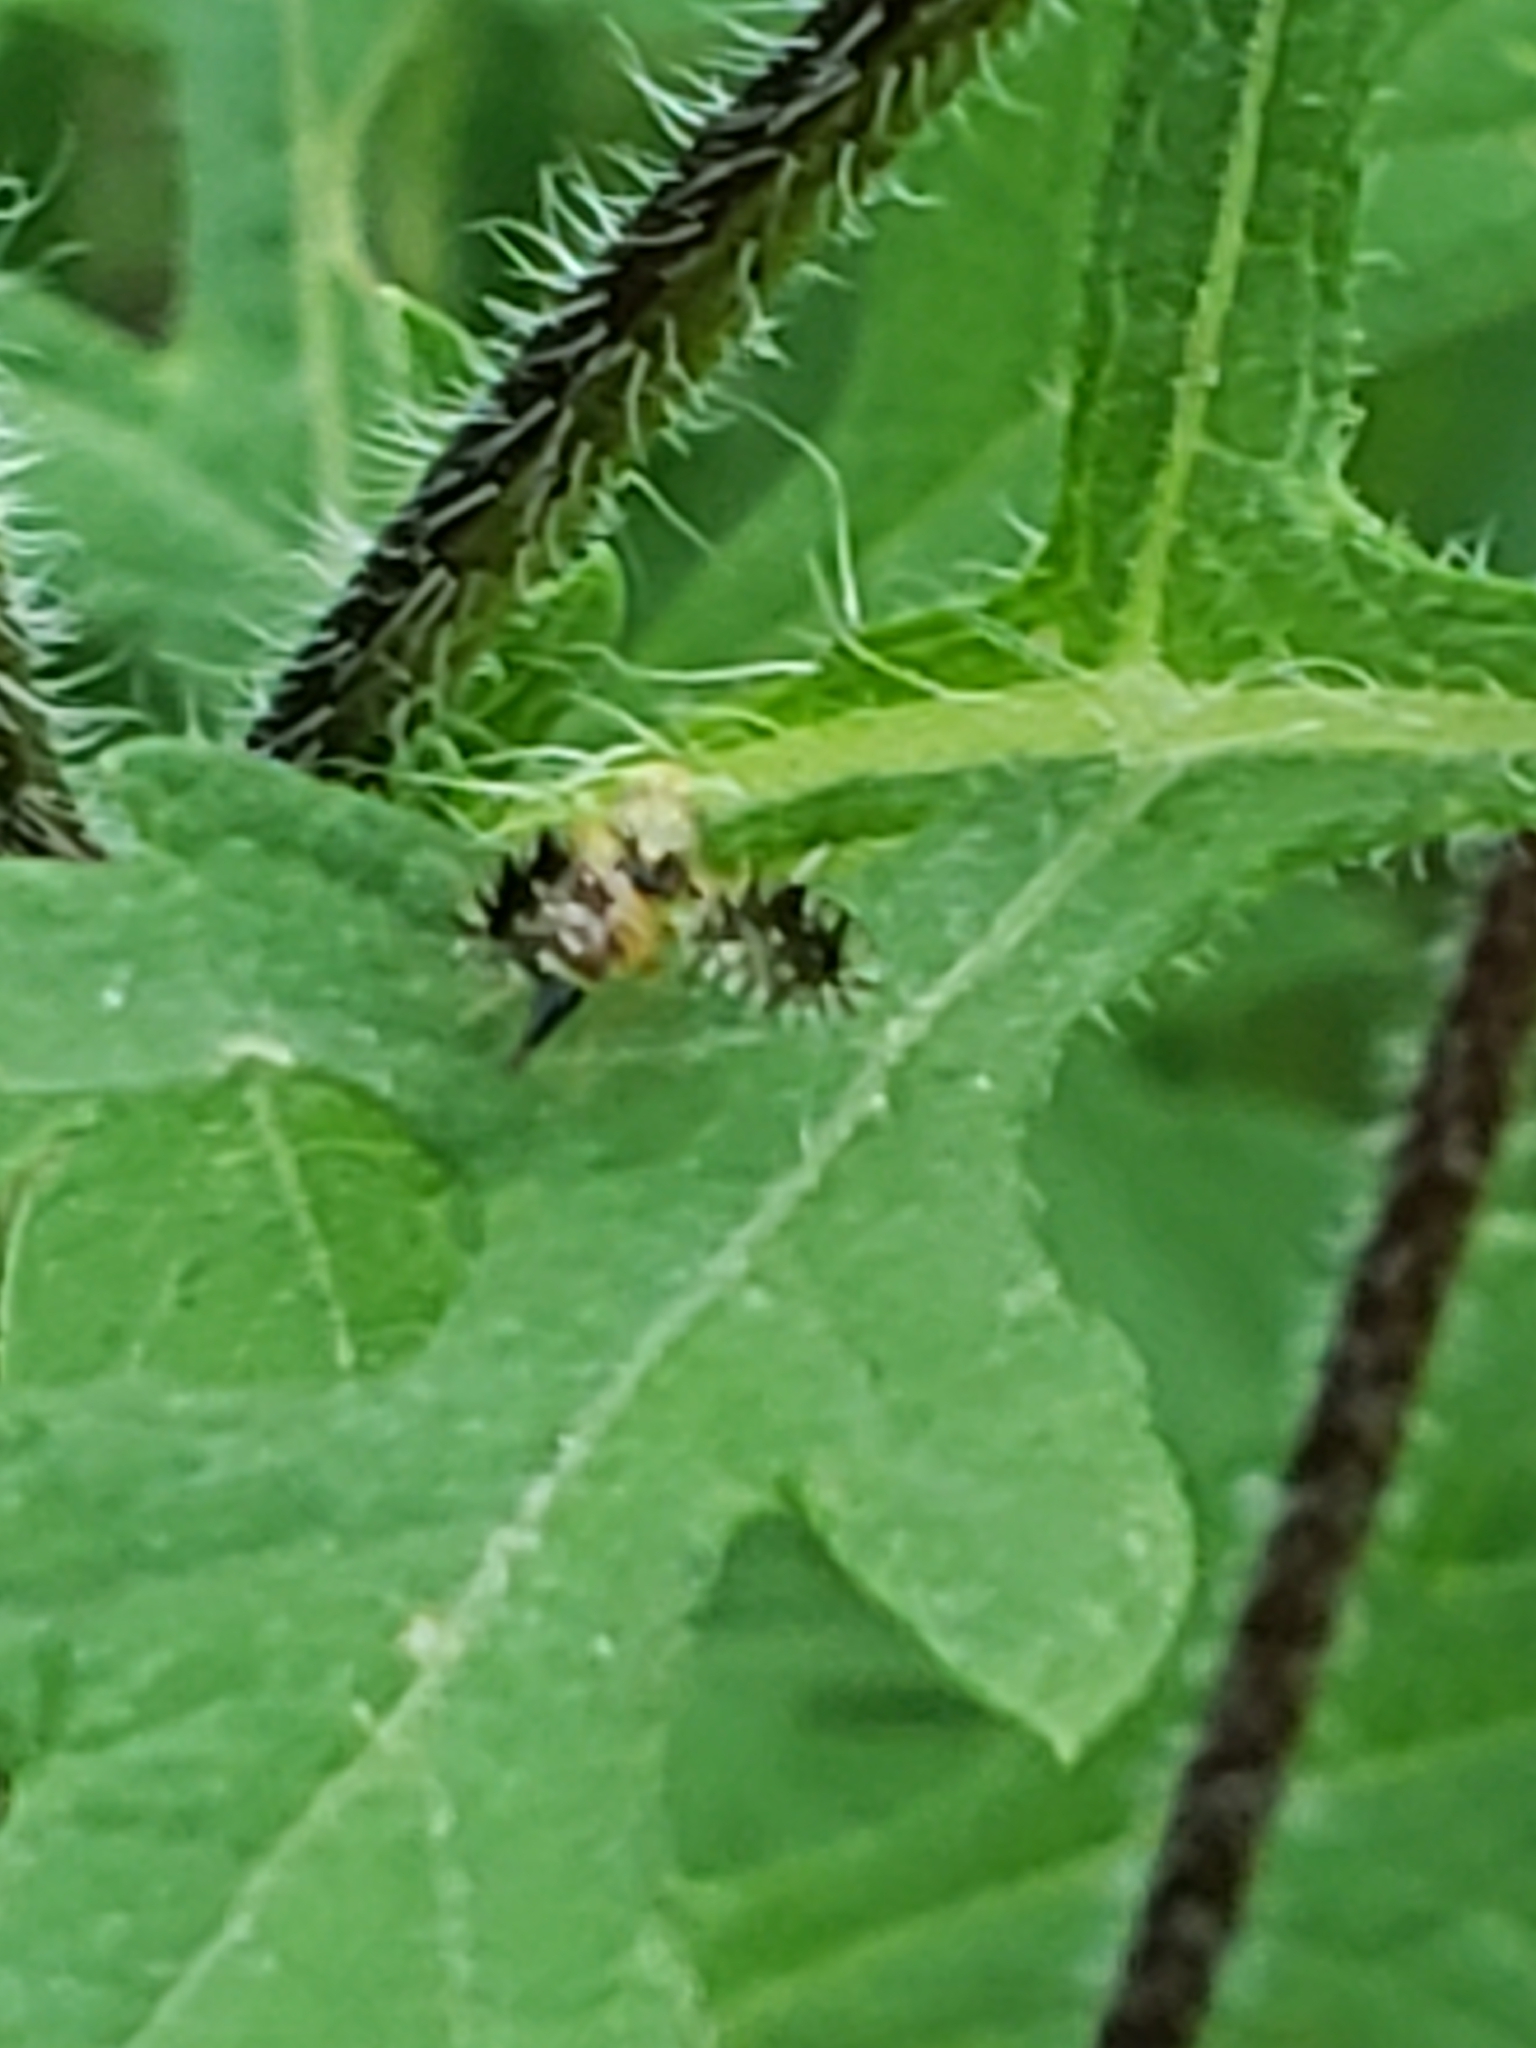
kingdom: Animalia
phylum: Arthropoda
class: Insecta
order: Diptera
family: Tephritidae
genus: Euaresta
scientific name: Euaresta bella
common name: Common ragweed fruit fly
